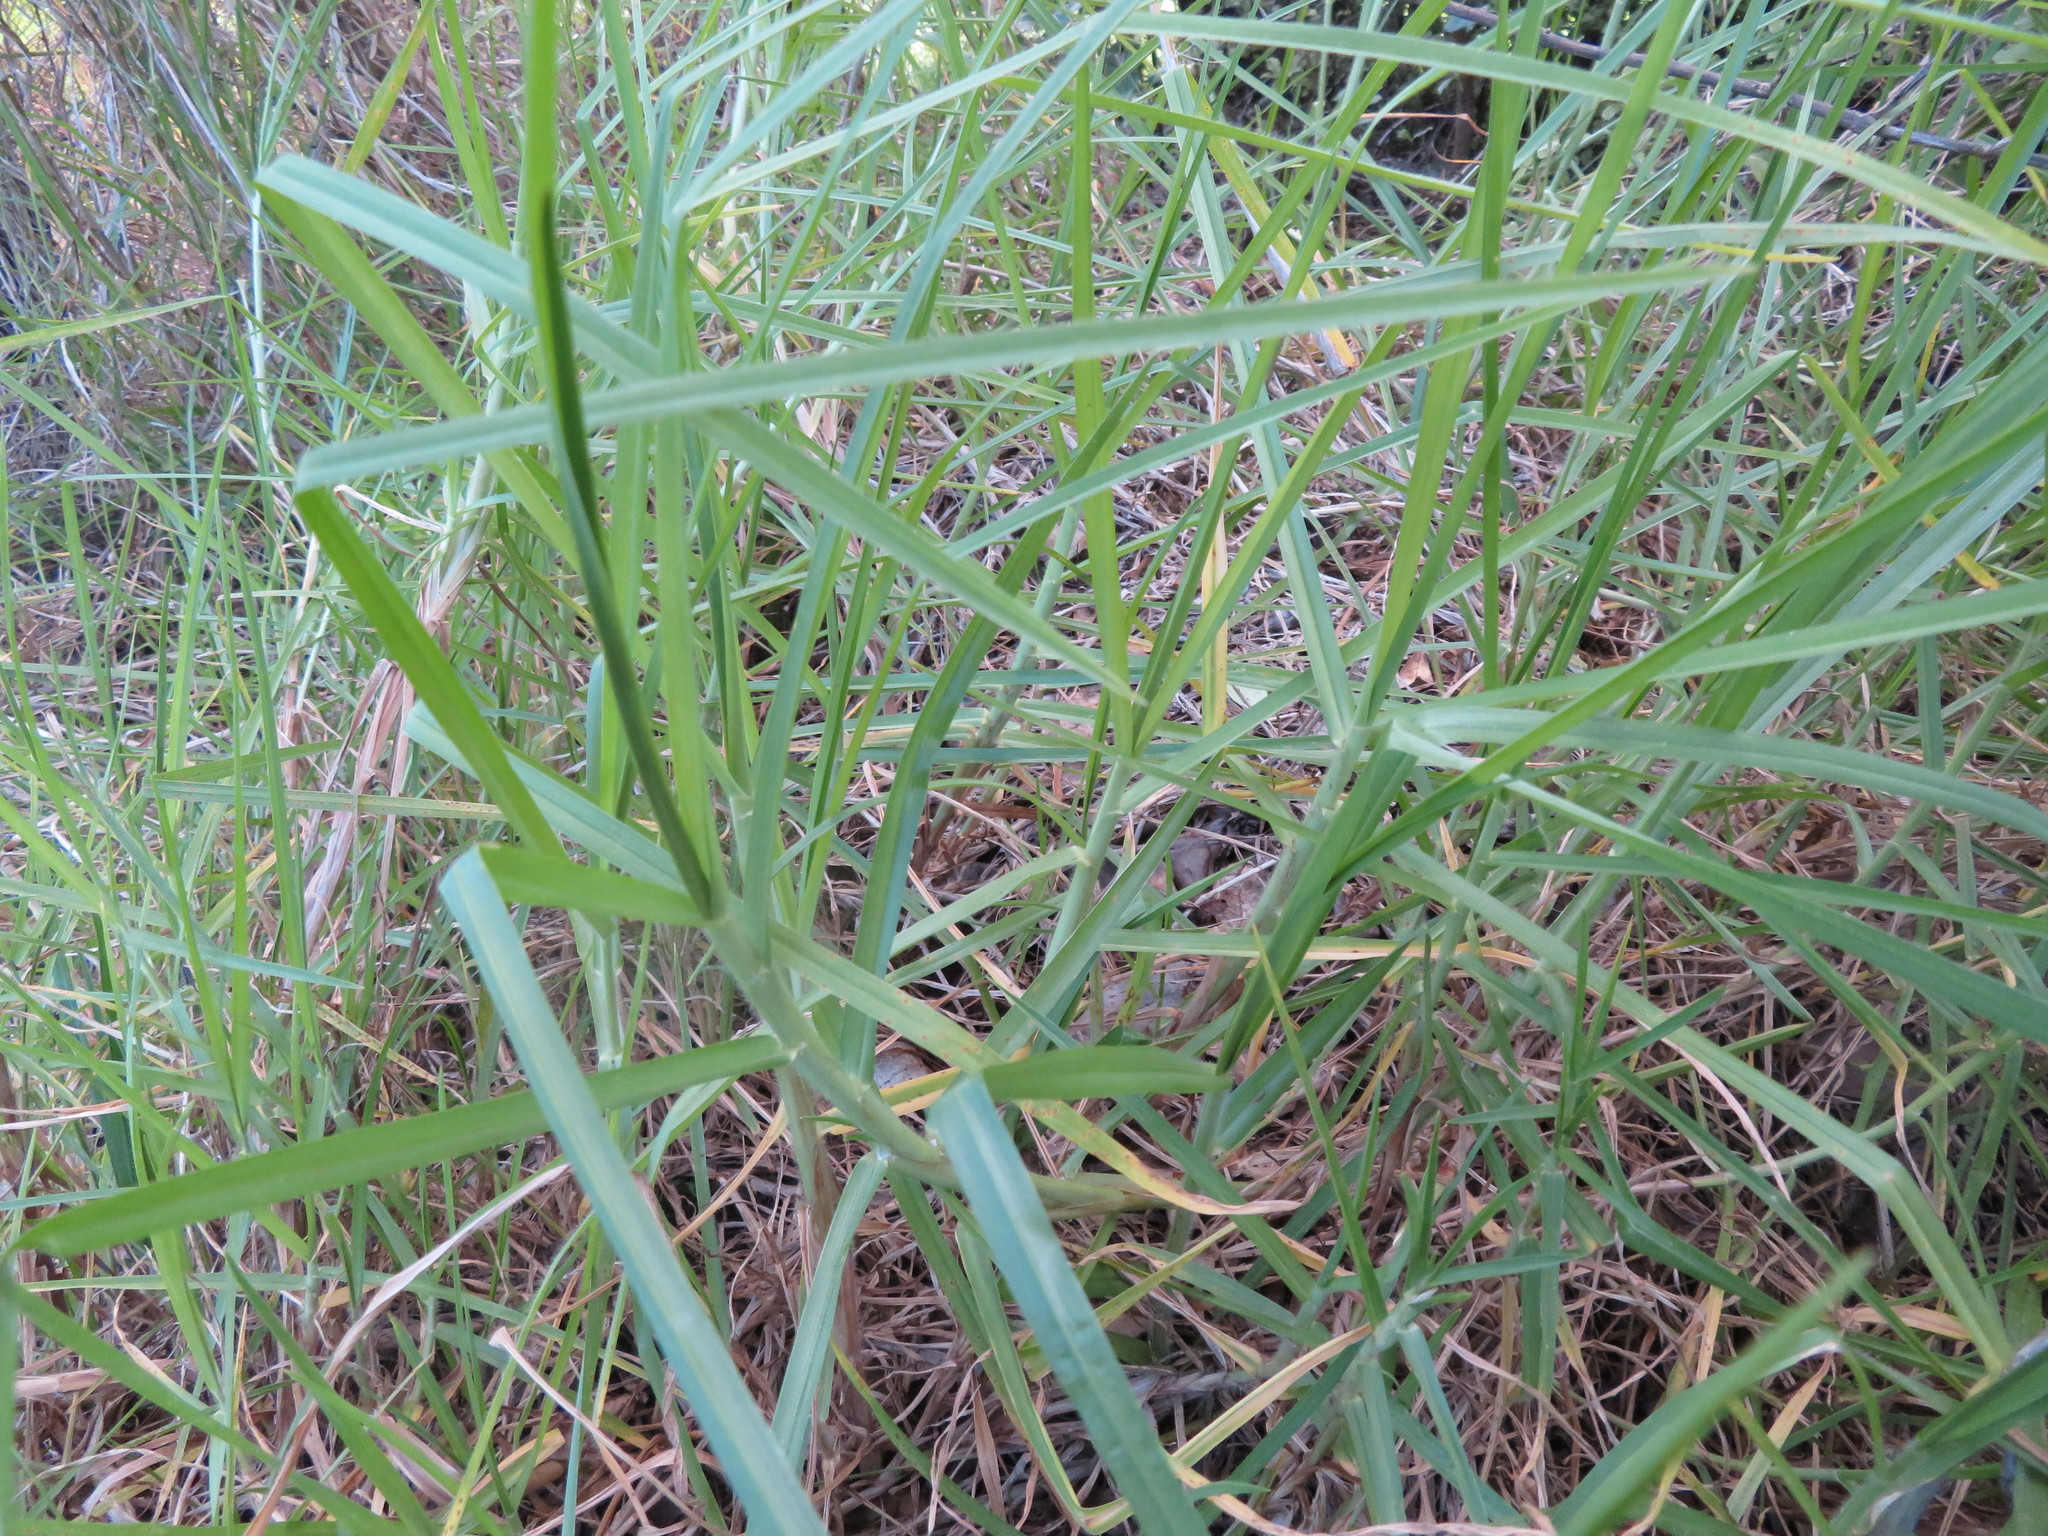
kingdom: Plantae
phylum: Tracheophyta
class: Liliopsida
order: Poales
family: Poaceae
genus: Cenchrus
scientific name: Cenchrus clandestinus
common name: Kikuyugrass
